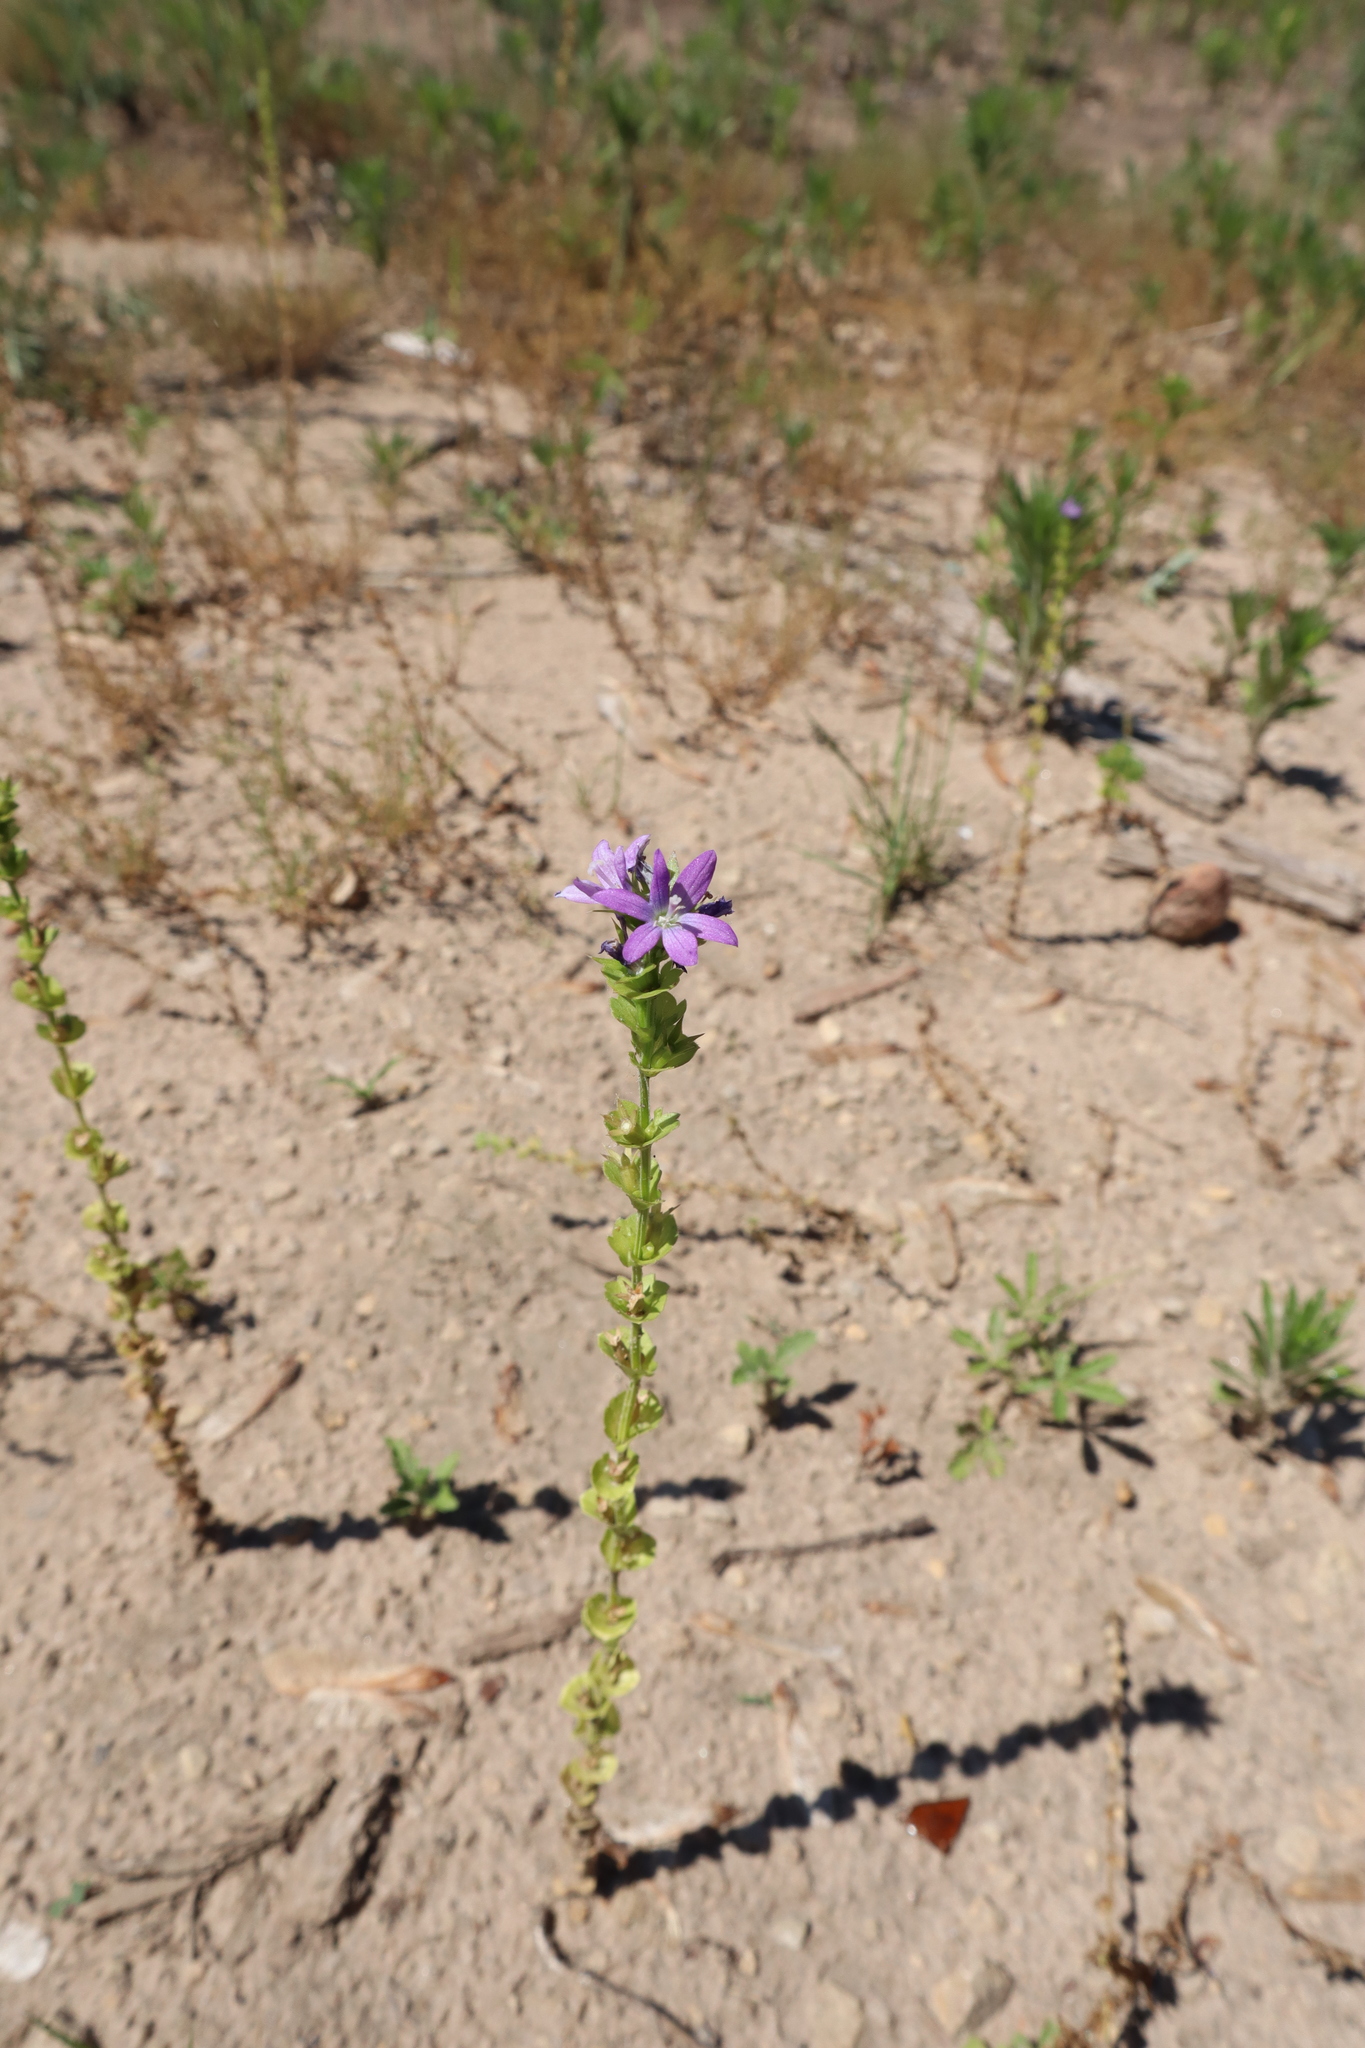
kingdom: Plantae
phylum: Tracheophyta
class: Magnoliopsida
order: Asterales
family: Campanulaceae
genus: Triodanis
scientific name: Triodanis perfoliata
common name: Clasping venus' looking-glass
